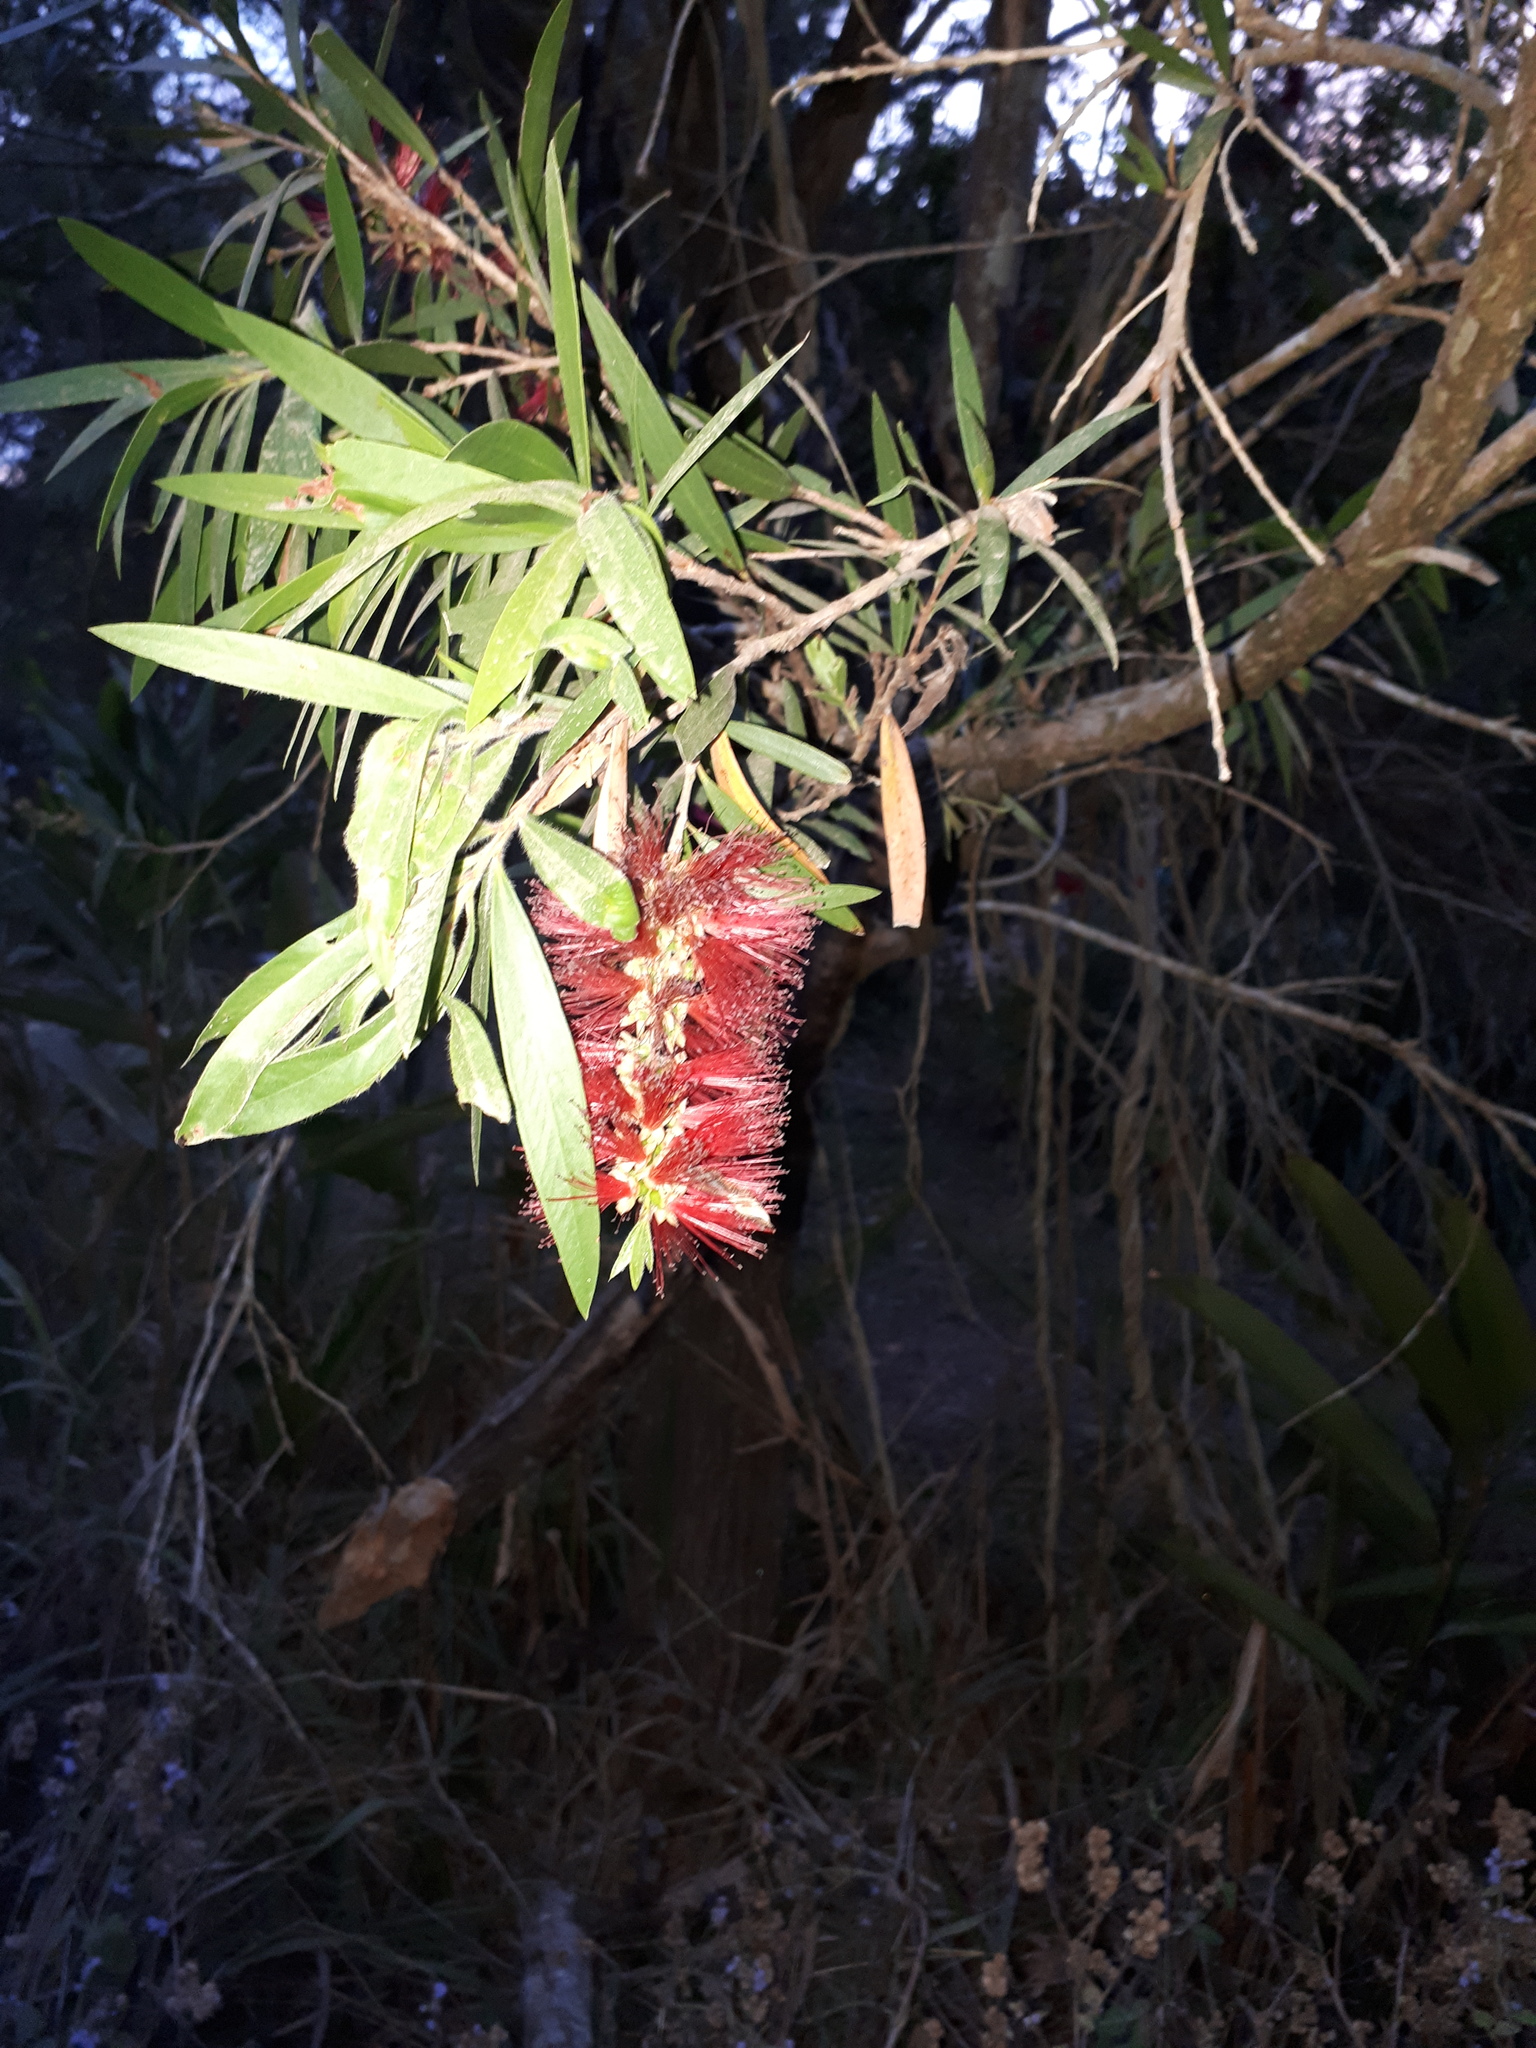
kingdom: Plantae
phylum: Tracheophyta
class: Magnoliopsida
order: Myrtales
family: Myrtaceae
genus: Callistemon
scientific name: Callistemon viminalis
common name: Drooping bottlebrush
